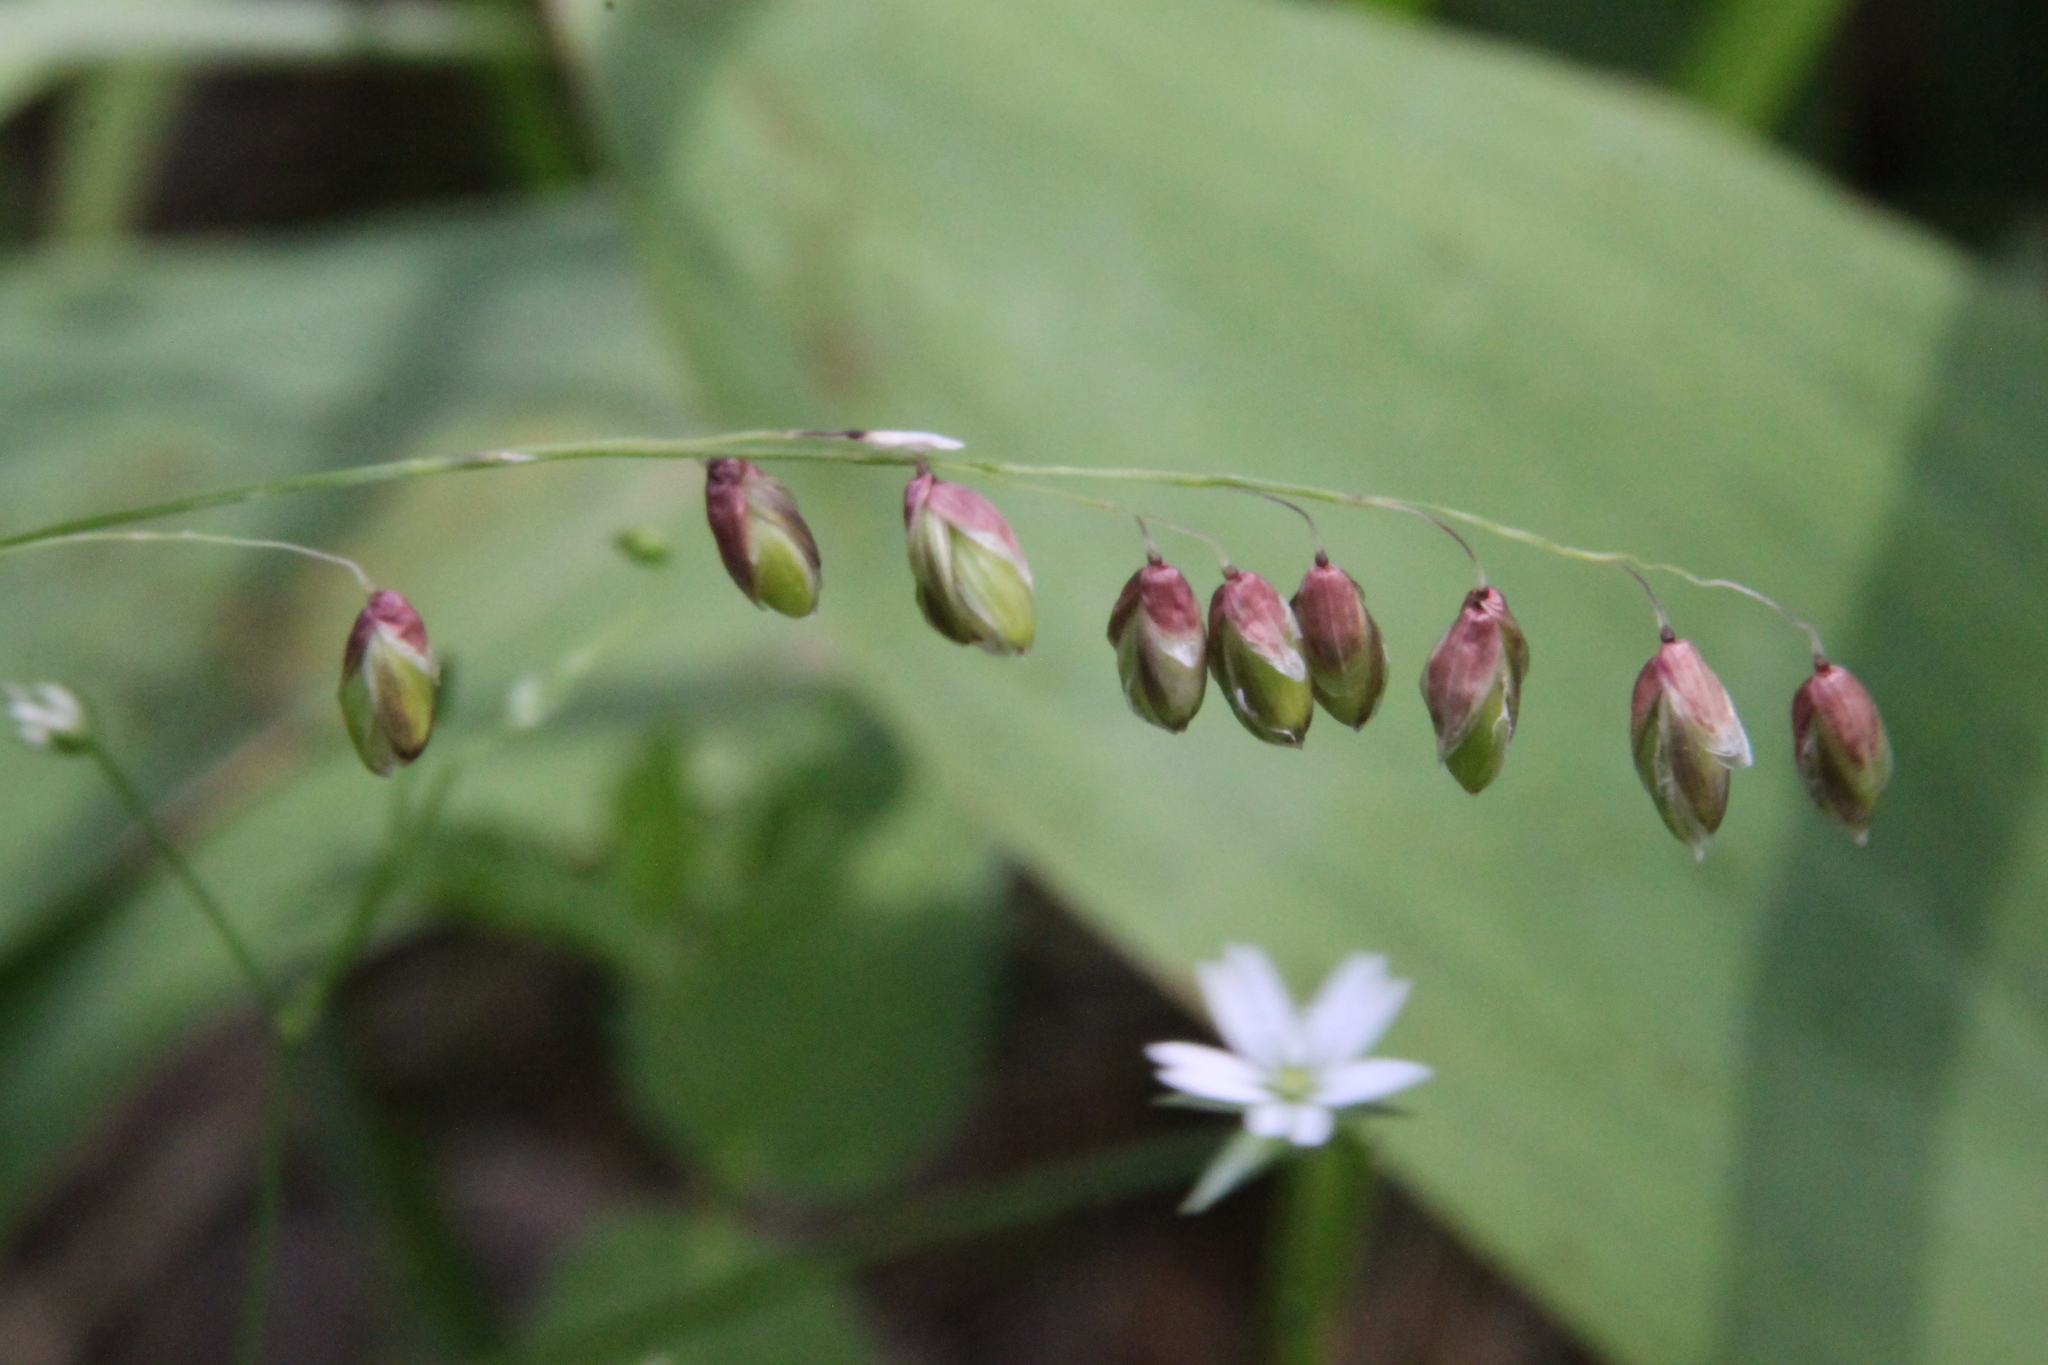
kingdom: Plantae
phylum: Tracheophyta
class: Liliopsida
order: Poales
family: Poaceae
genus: Melica
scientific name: Melica nutans
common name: Mountain melick
